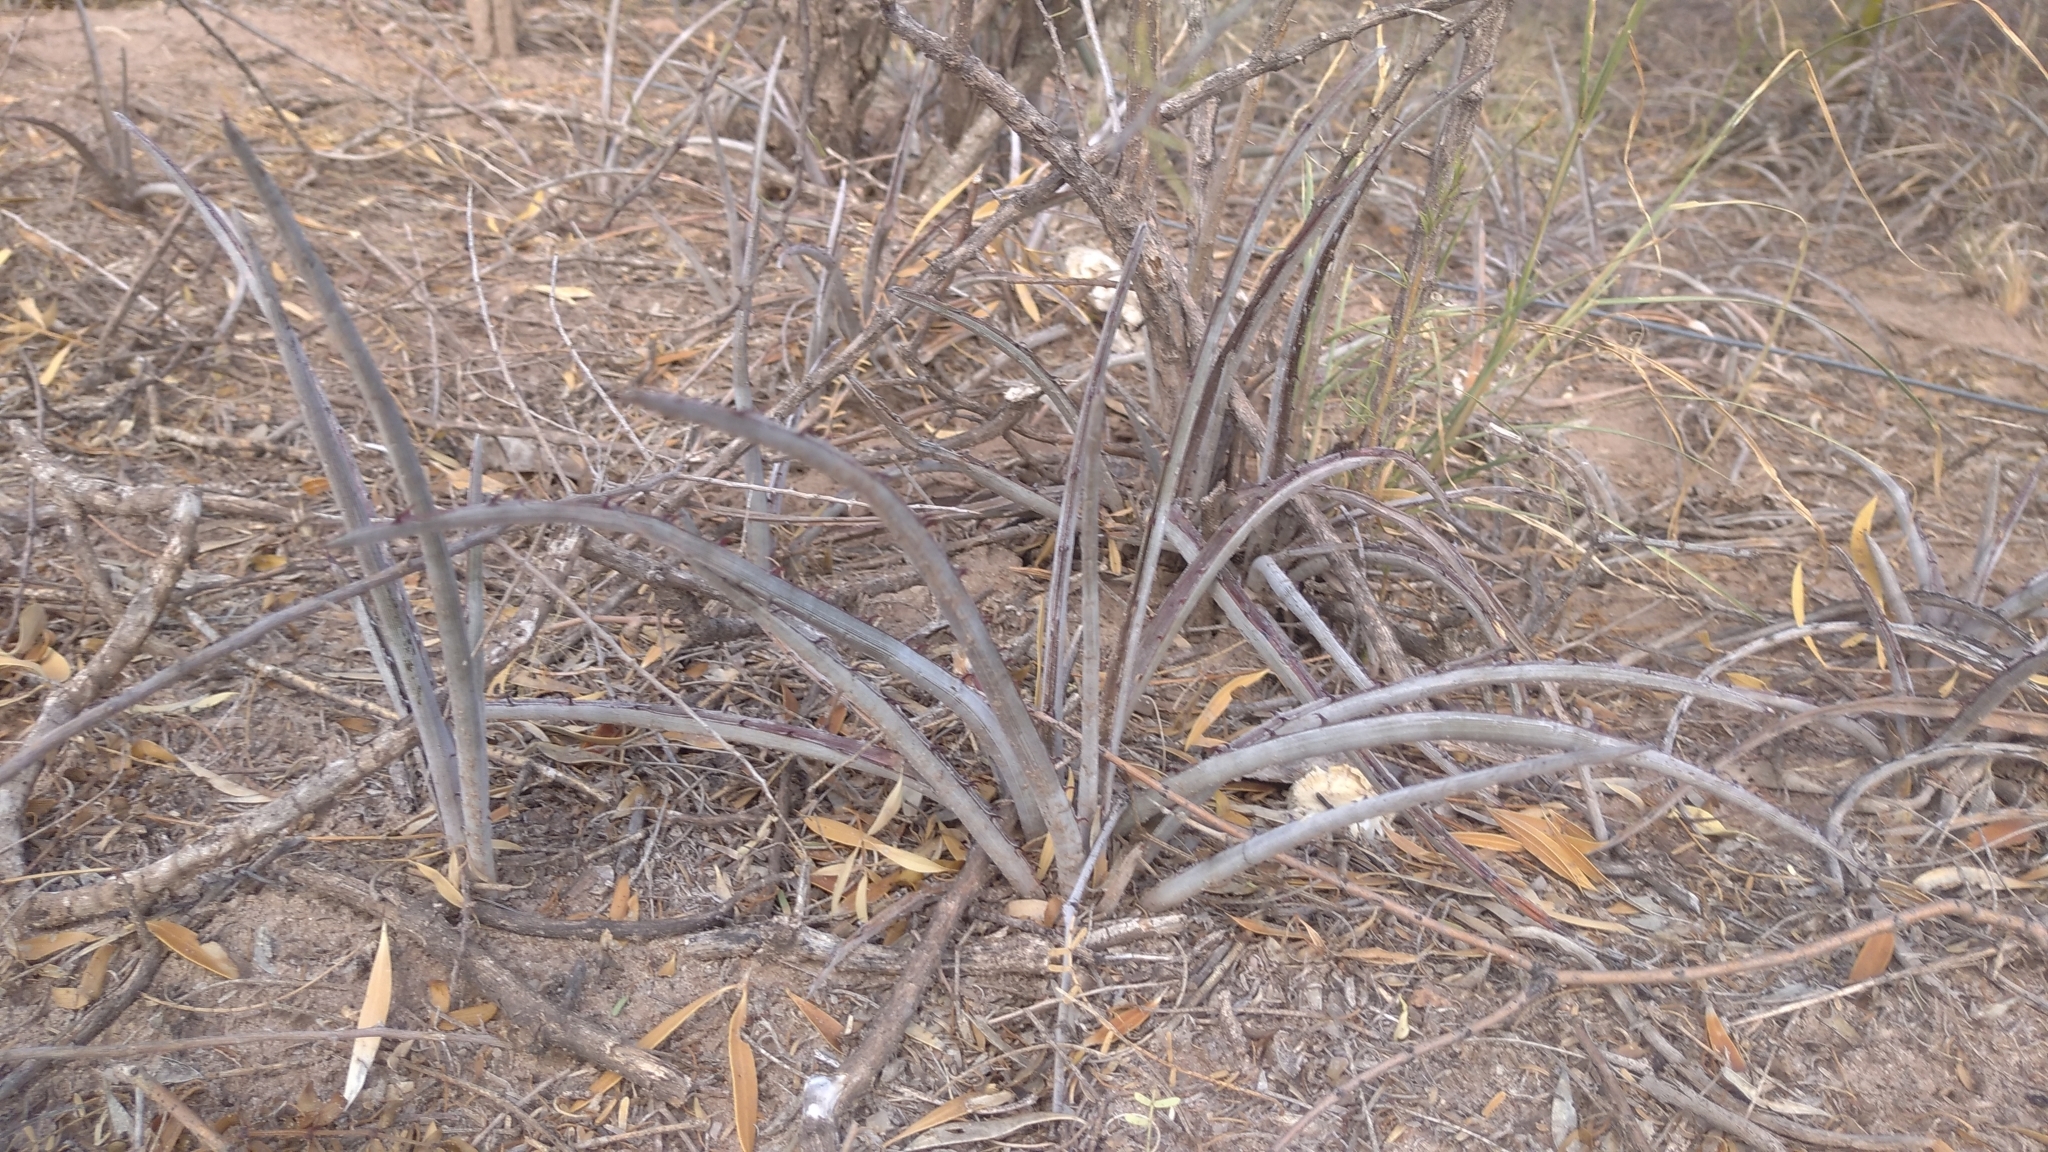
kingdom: Plantae
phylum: Tracheophyta
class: Liliopsida
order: Poales
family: Bromeliaceae
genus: Deinacanthon
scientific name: Deinacanthon urbanianum
